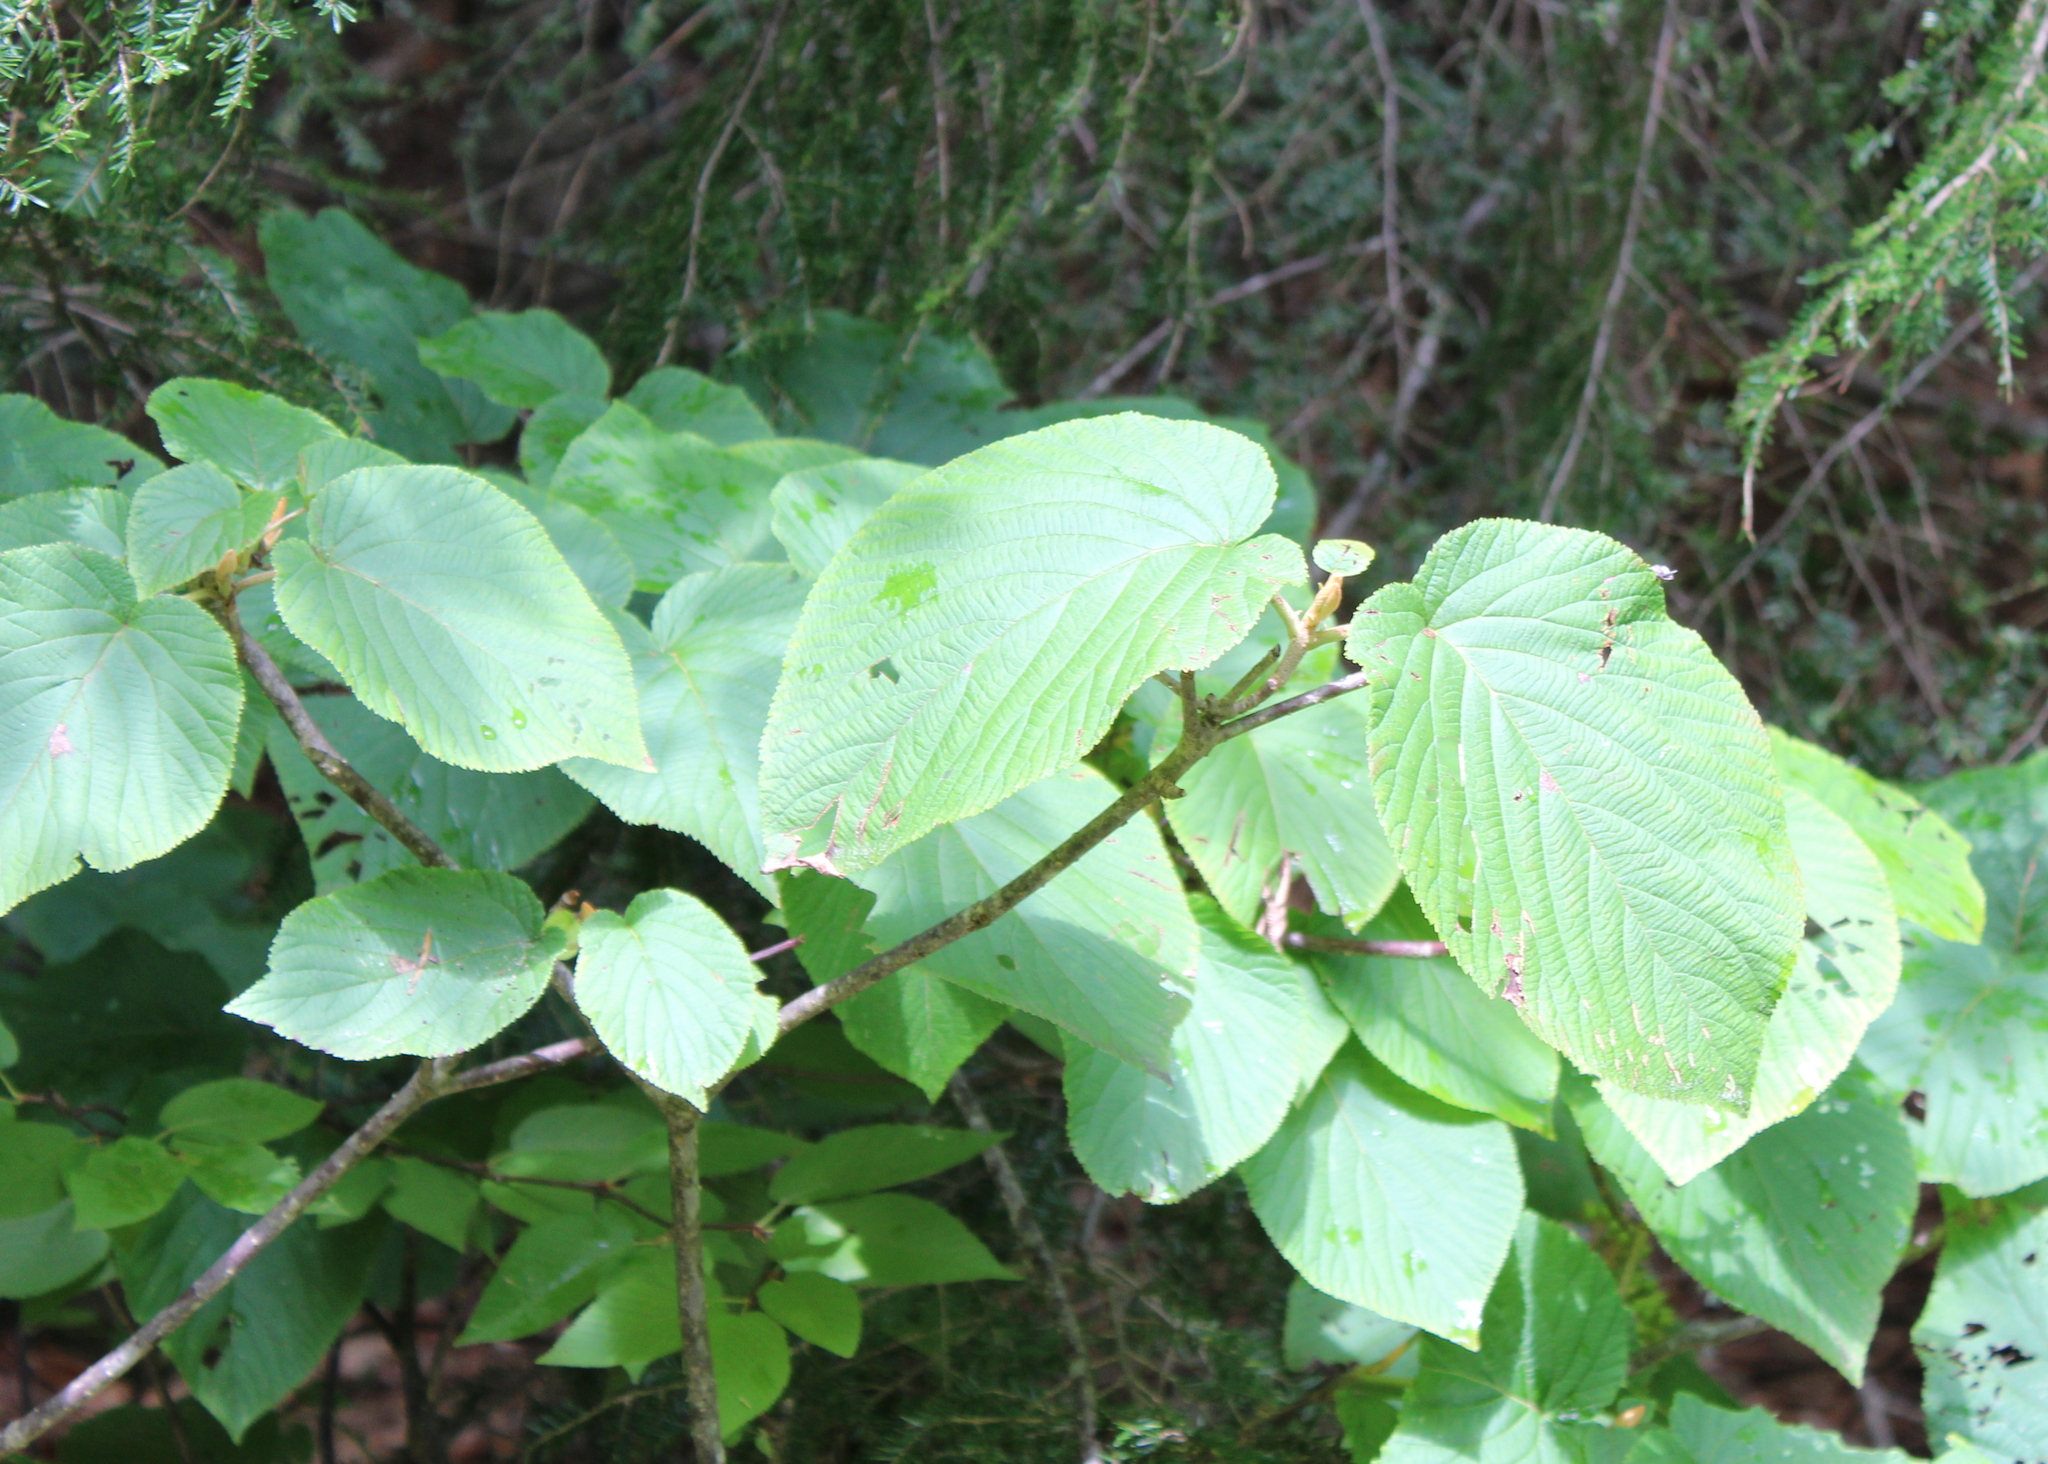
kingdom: Plantae
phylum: Tracheophyta
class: Magnoliopsida
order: Dipsacales
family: Viburnaceae
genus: Viburnum
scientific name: Viburnum lantanoides
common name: Hobblebush
